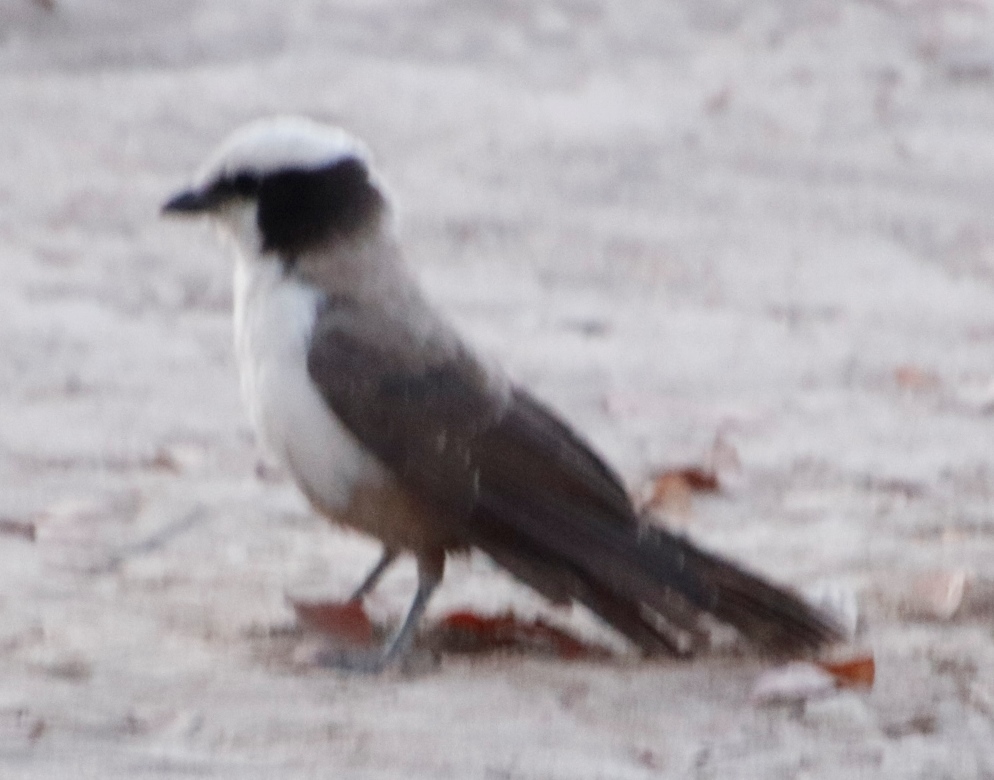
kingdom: Animalia
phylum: Chordata
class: Aves
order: Passeriformes
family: Laniidae
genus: Eurocephalus
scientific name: Eurocephalus anguitimens
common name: Southern white-crowned shrike
